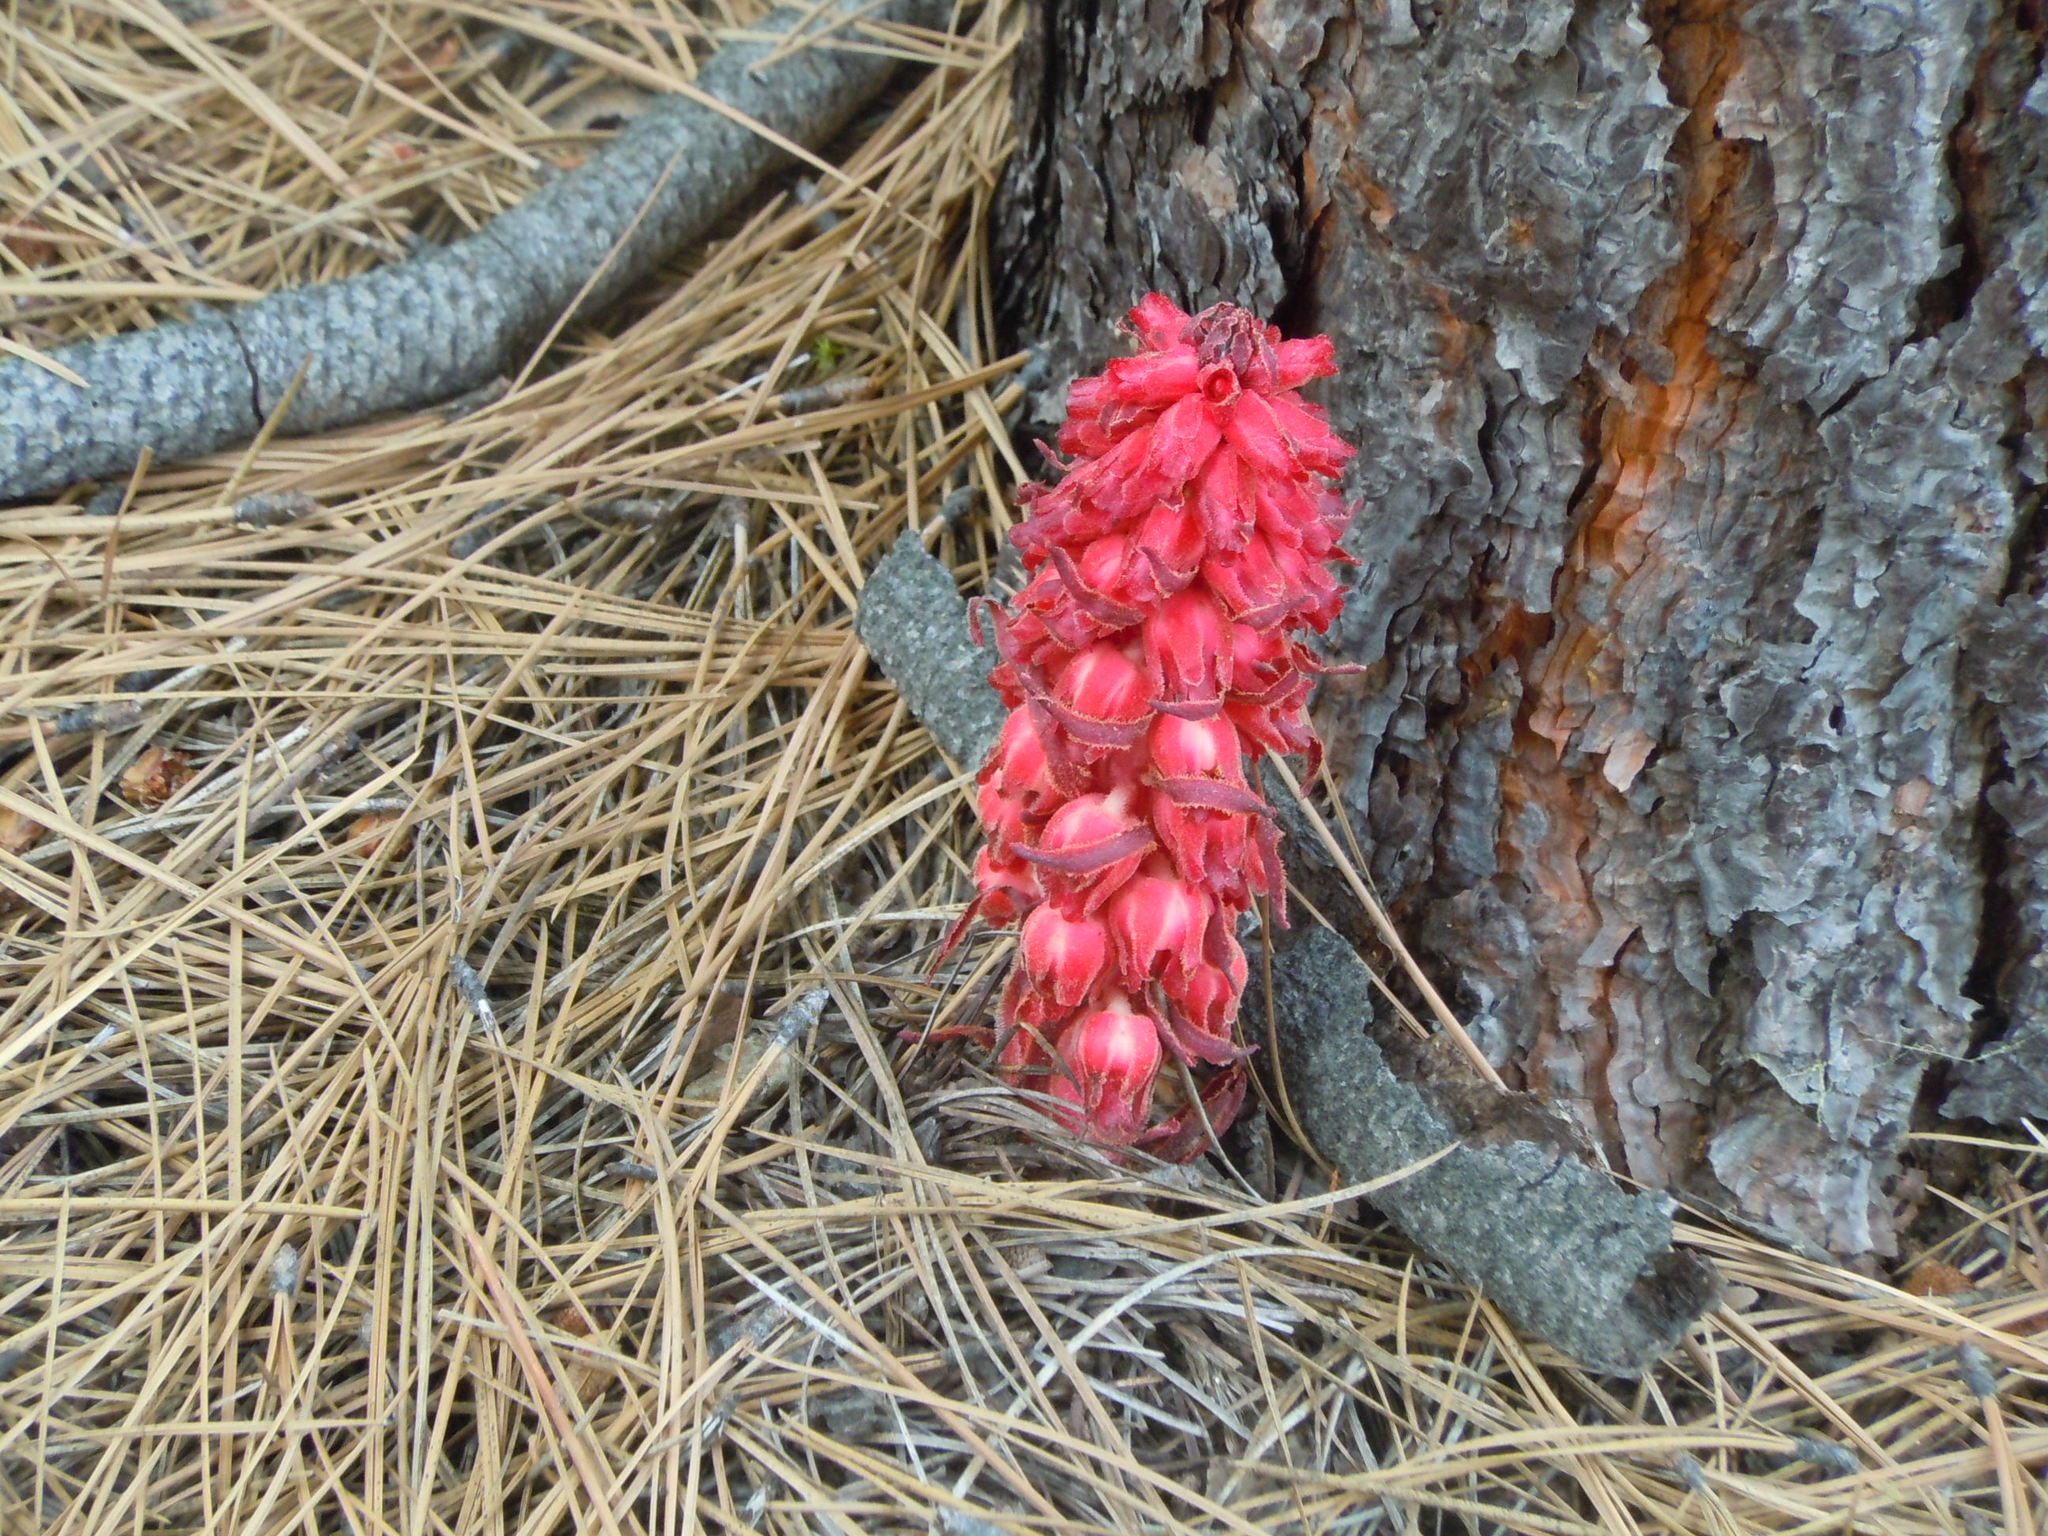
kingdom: Plantae
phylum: Tracheophyta
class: Magnoliopsida
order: Ericales
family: Ericaceae
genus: Sarcodes
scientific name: Sarcodes sanguinea
